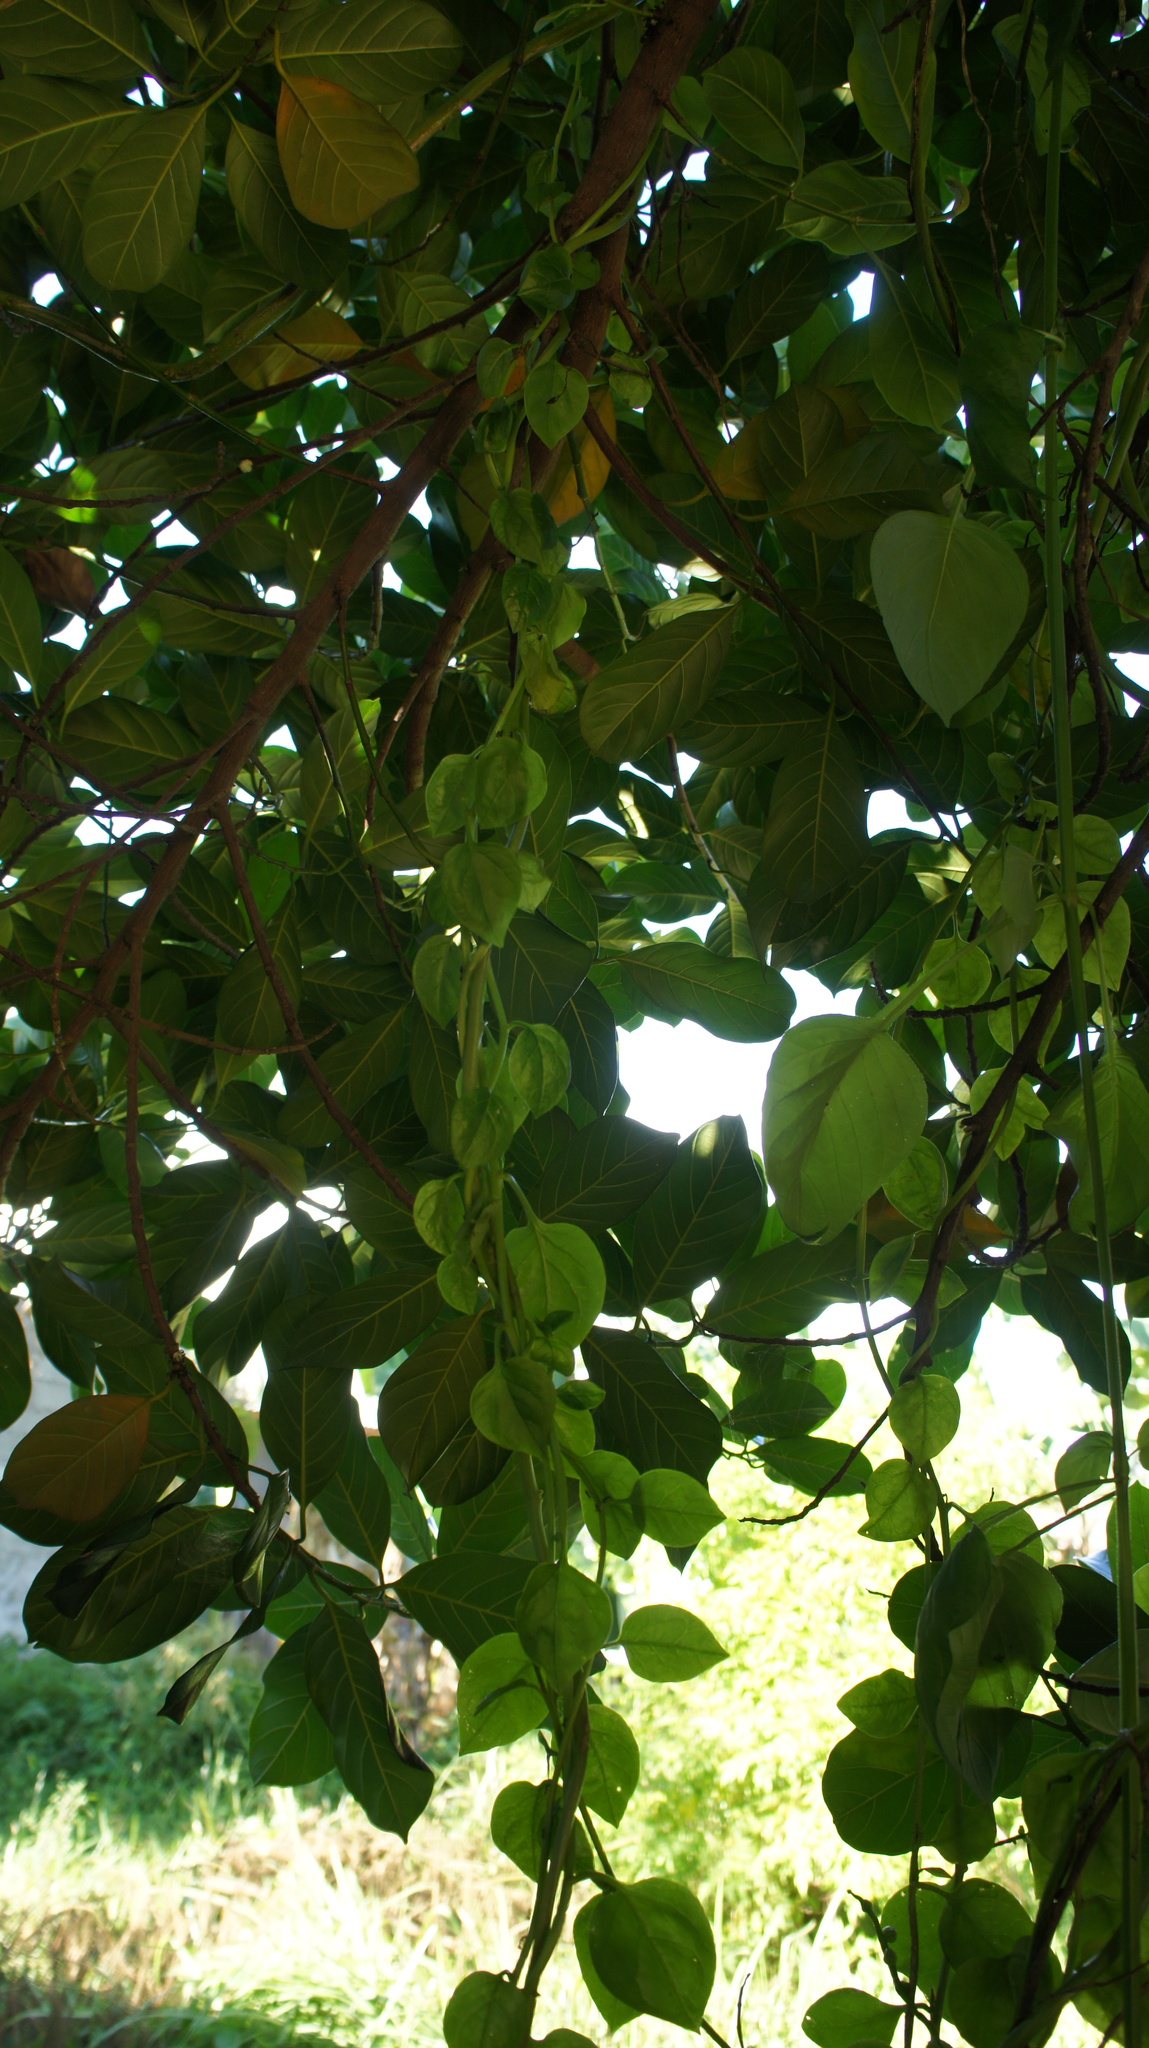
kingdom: Plantae
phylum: Tracheophyta
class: Magnoliopsida
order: Caryophyllales
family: Basellaceae
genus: Basella
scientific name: Basella alba
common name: Indian spinach
